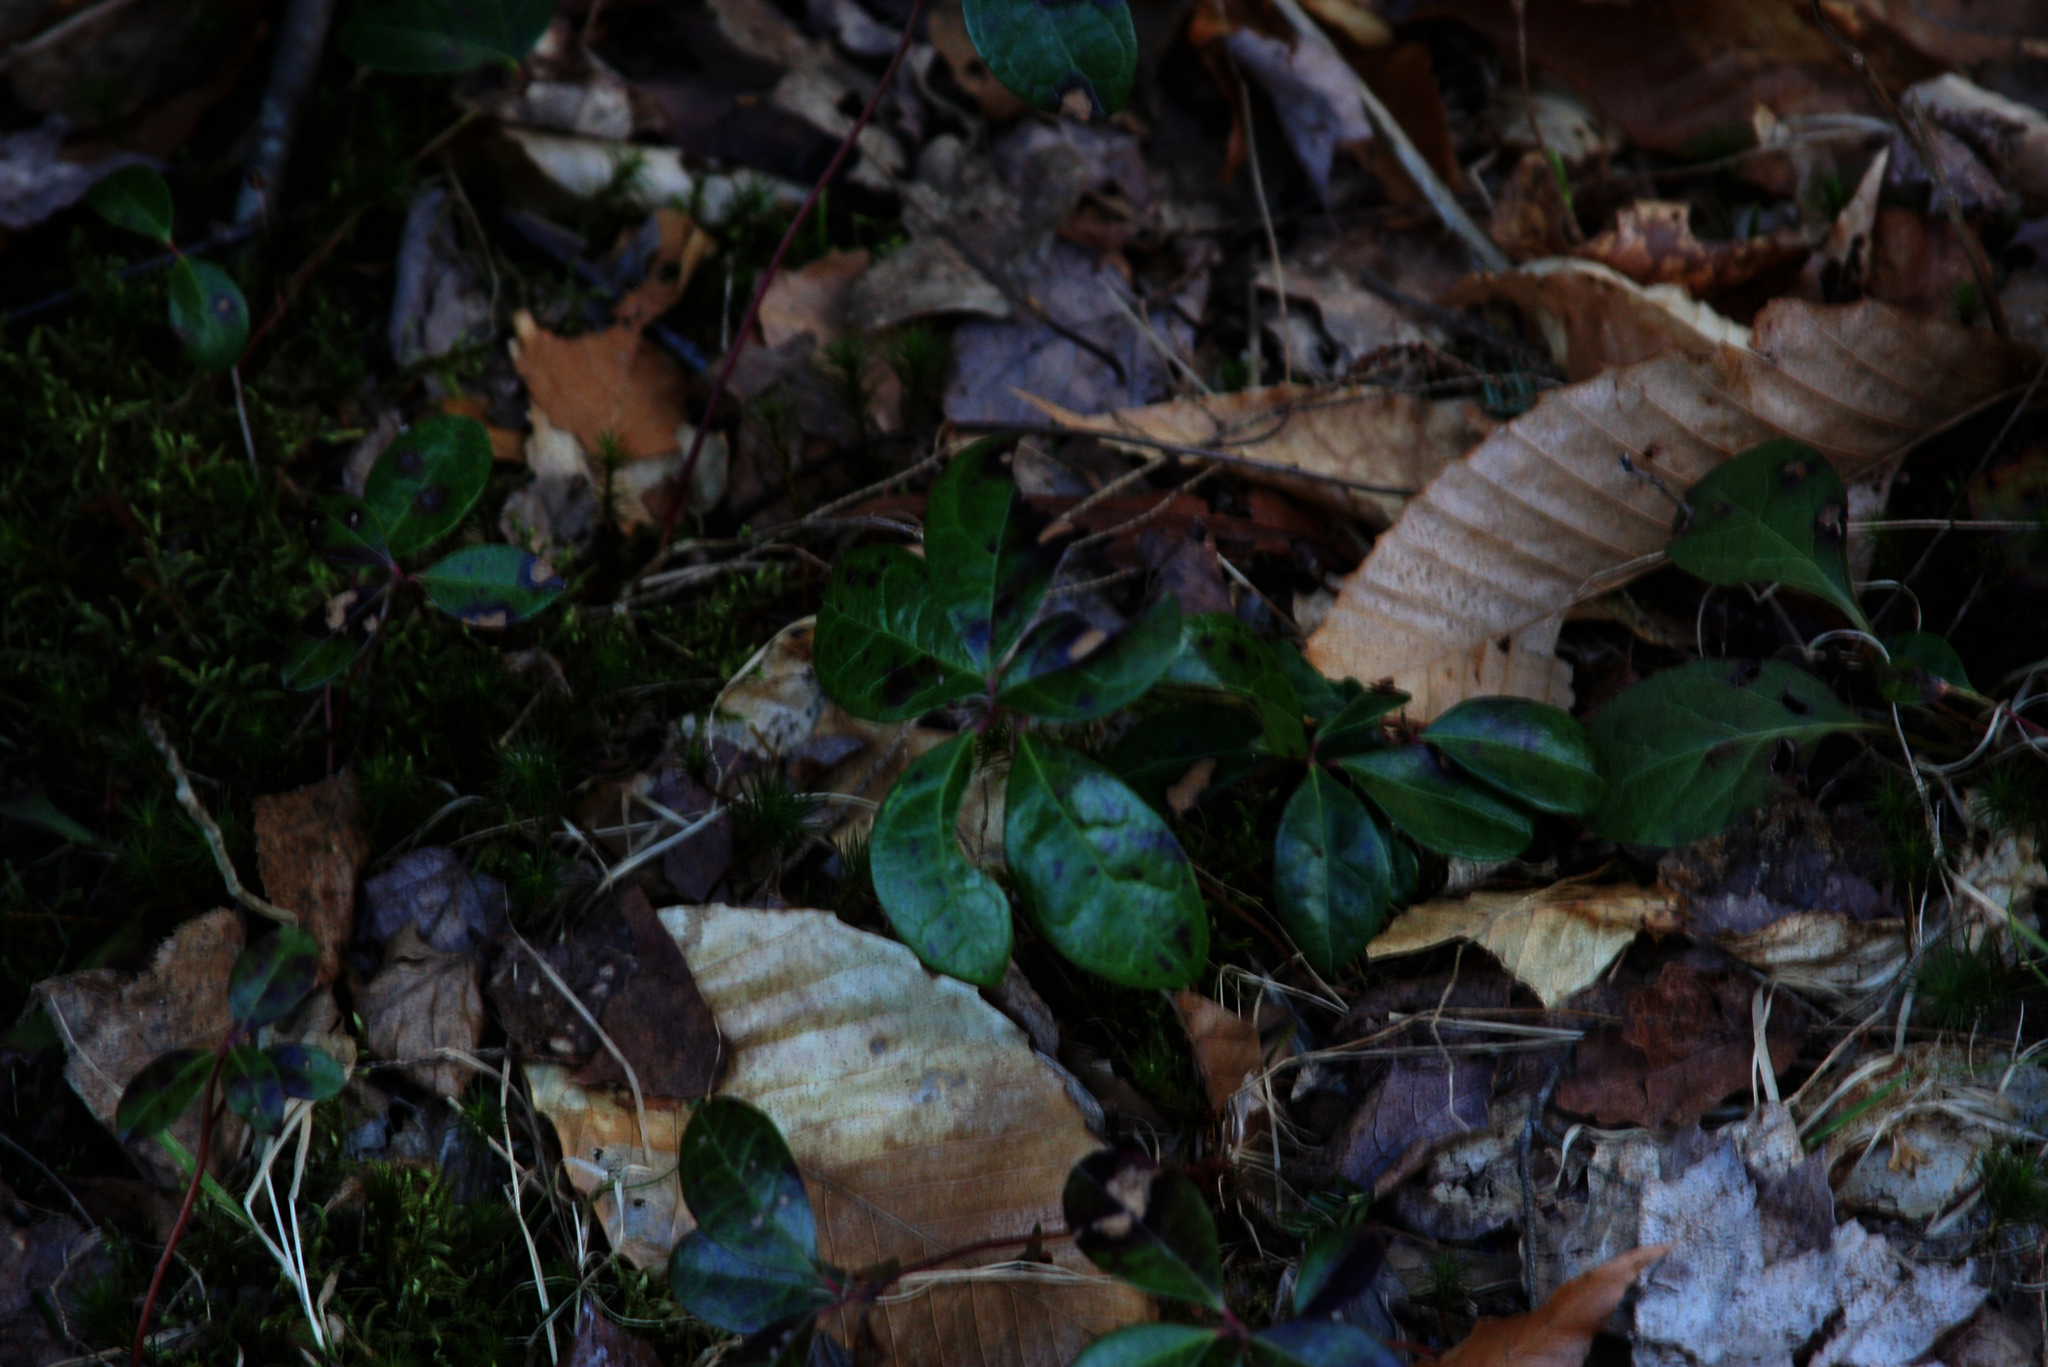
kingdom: Plantae
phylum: Tracheophyta
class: Magnoliopsida
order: Ericales
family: Ericaceae
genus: Gaultheria
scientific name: Gaultheria procumbens
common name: Checkerberry
